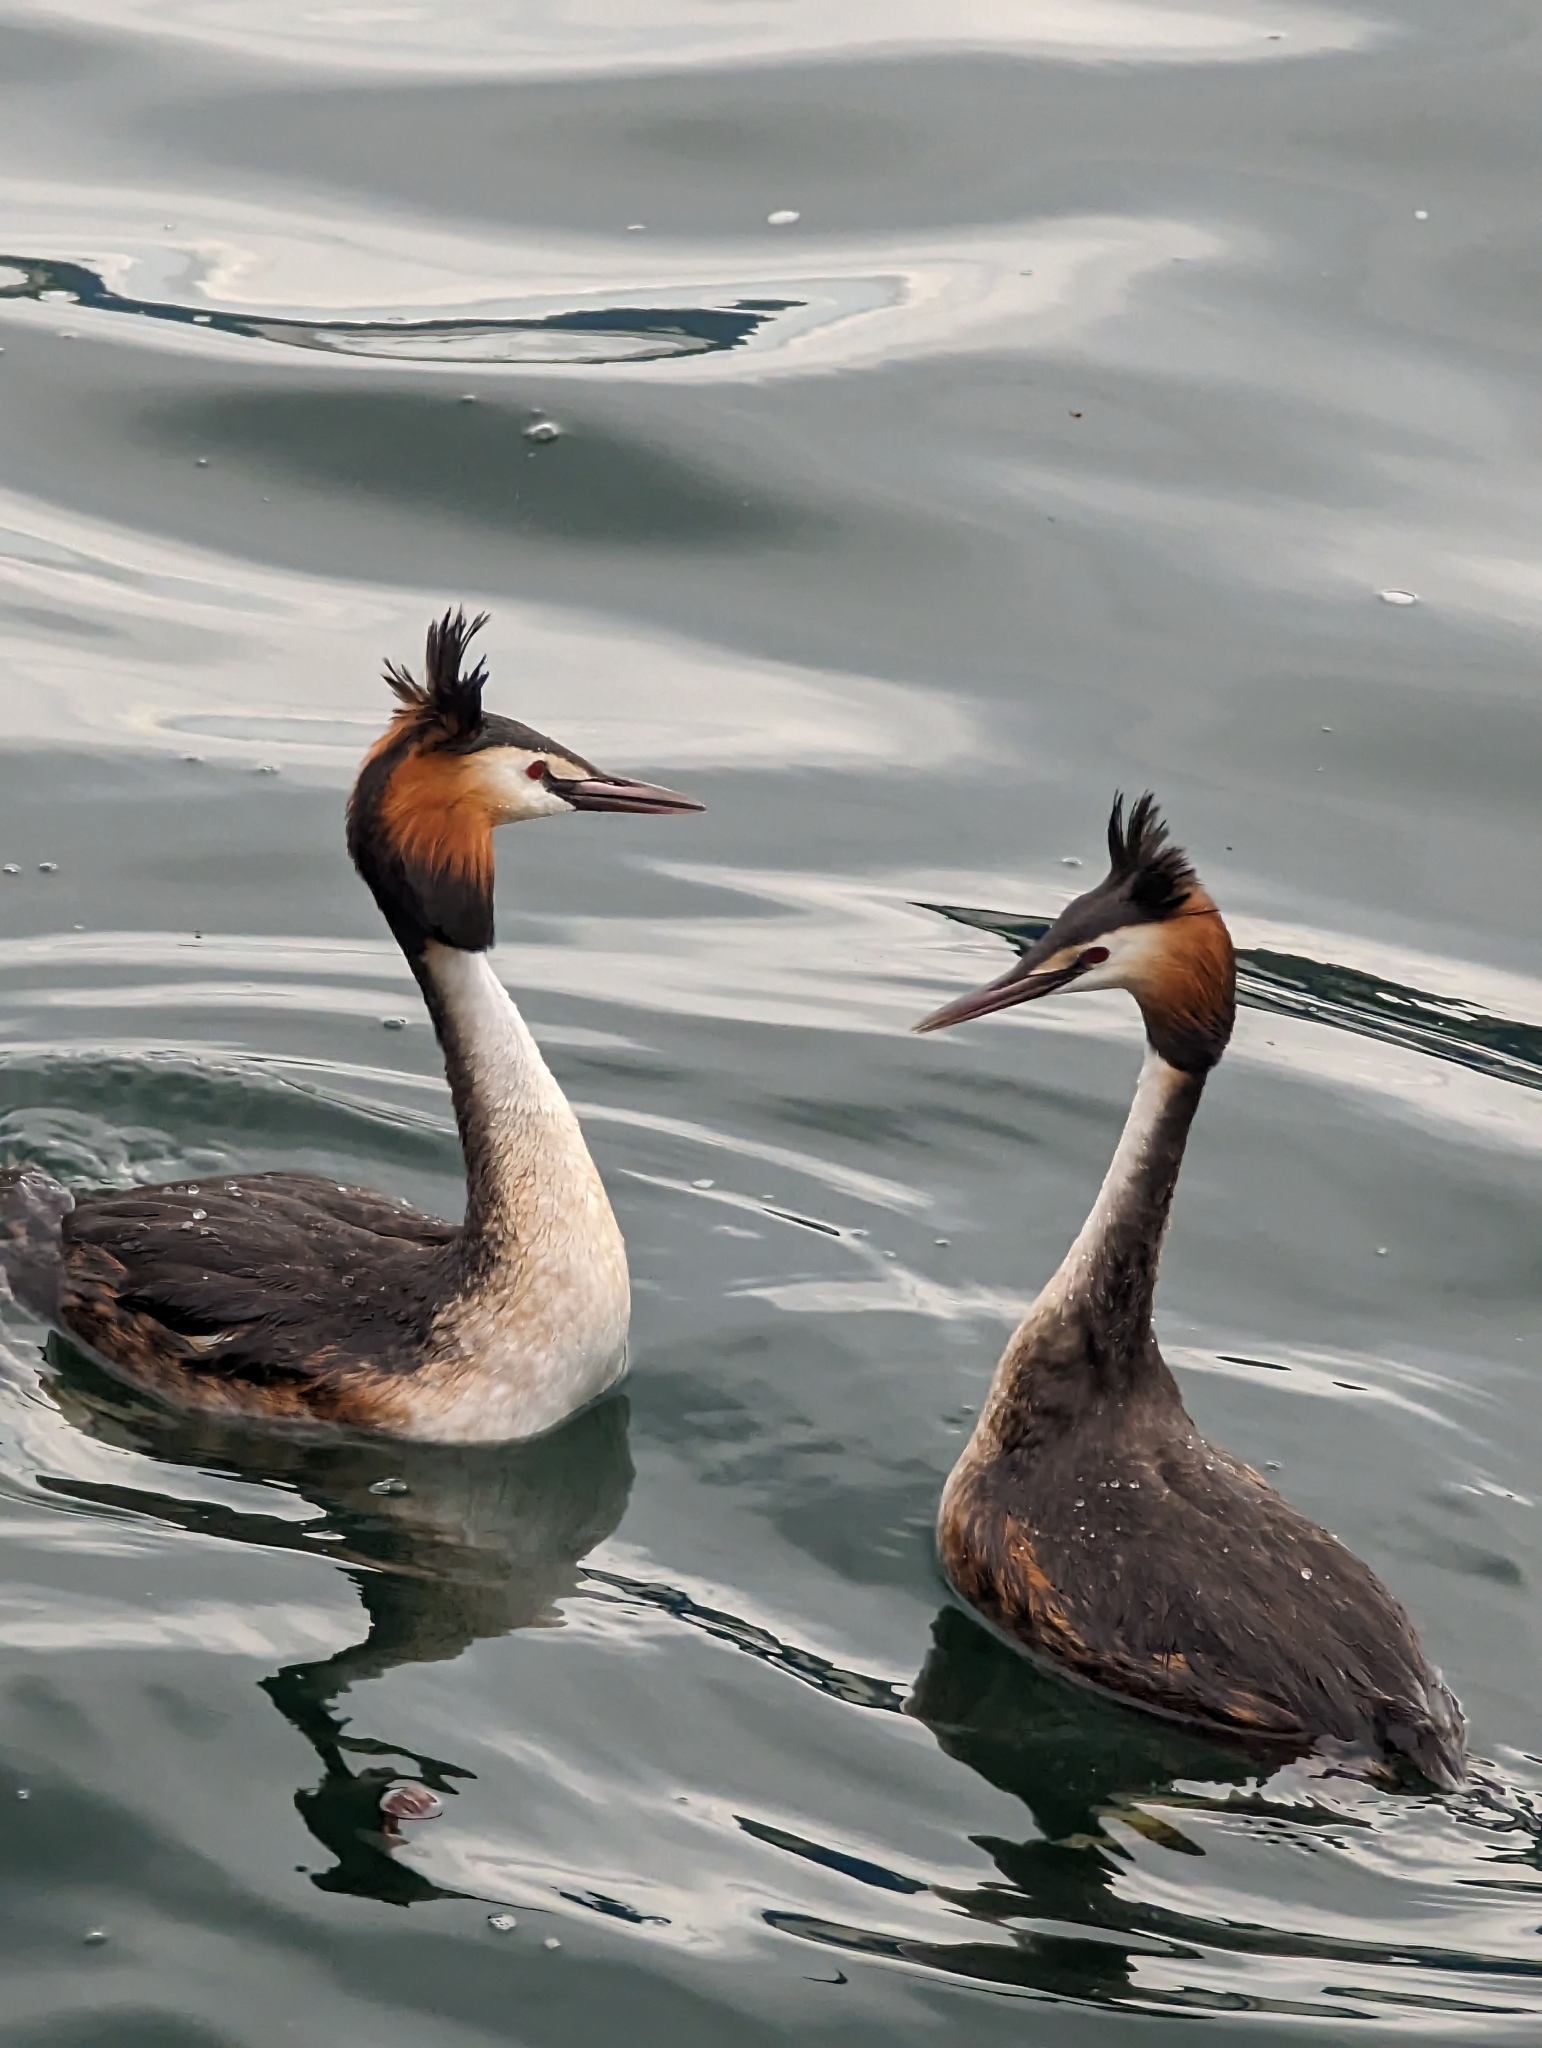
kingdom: Animalia
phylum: Chordata
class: Aves
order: Podicipediformes
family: Podicipedidae
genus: Podiceps
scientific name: Podiceps cristatus
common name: Great crested grebe
